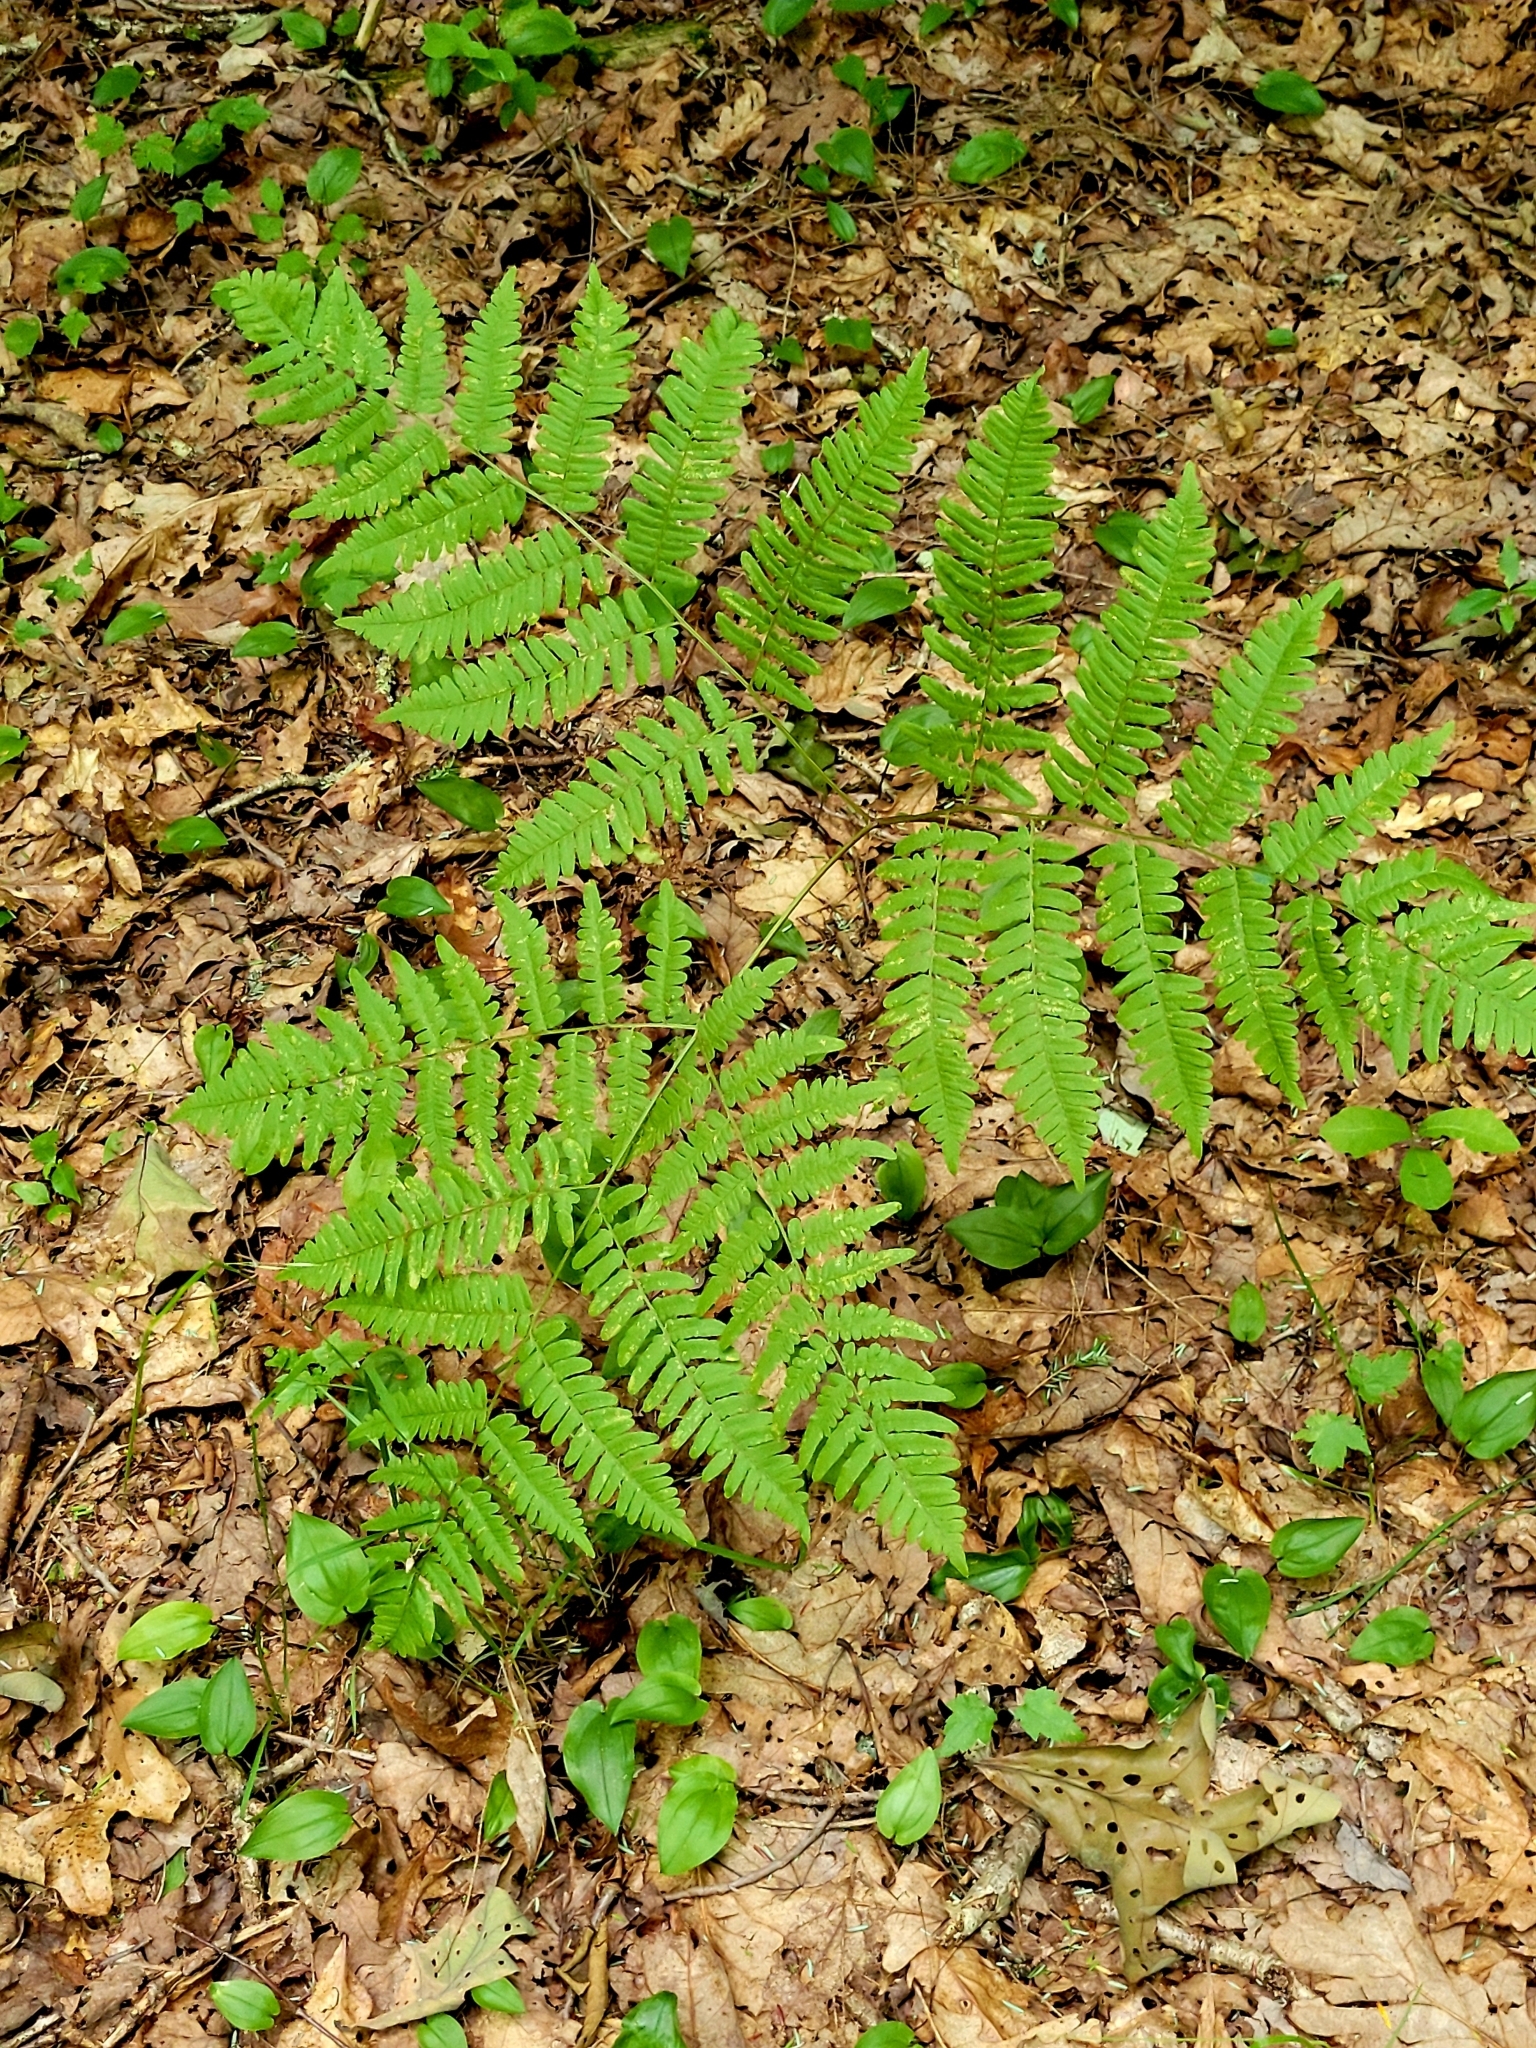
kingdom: Plantae
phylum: Tracheophyta
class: Polypodiopsida
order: Polypodiales
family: Dennstaedtiaceae
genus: Pteridium
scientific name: Pteridium aquilinum
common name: Bracken
